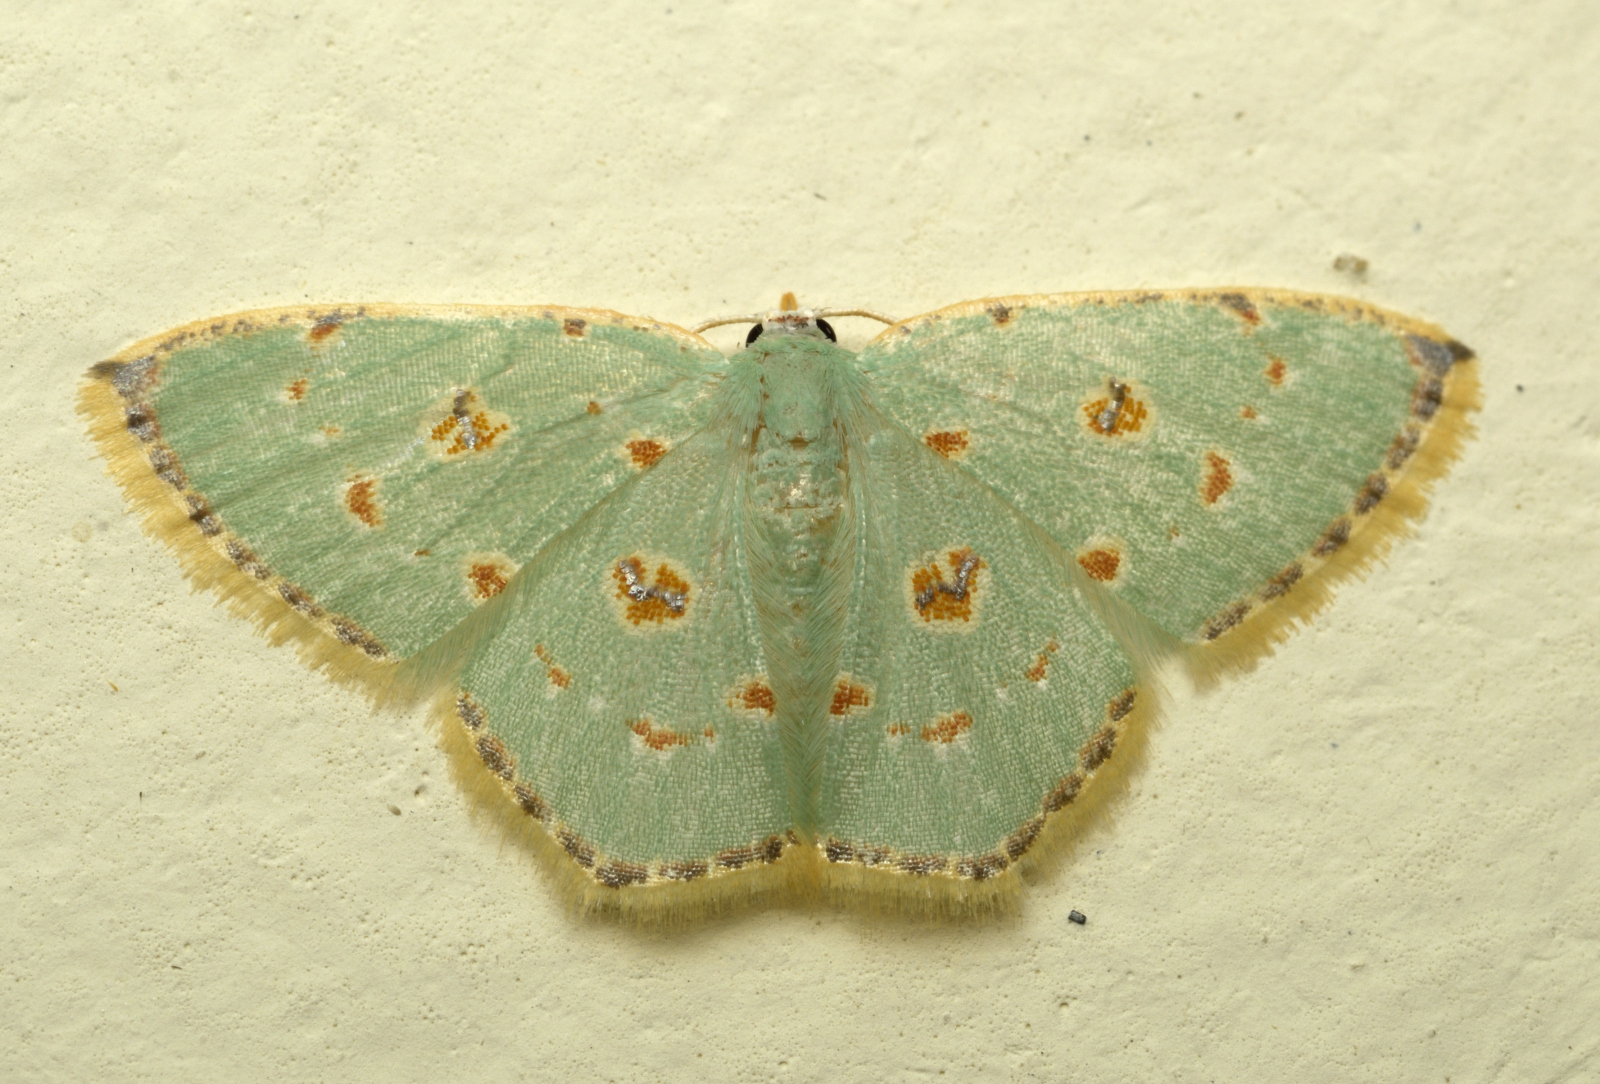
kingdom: Animalia
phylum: Arthropoda
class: Insecta
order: Lepidoptera
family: Geometridae
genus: Comostola
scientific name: Comostola laesaria
